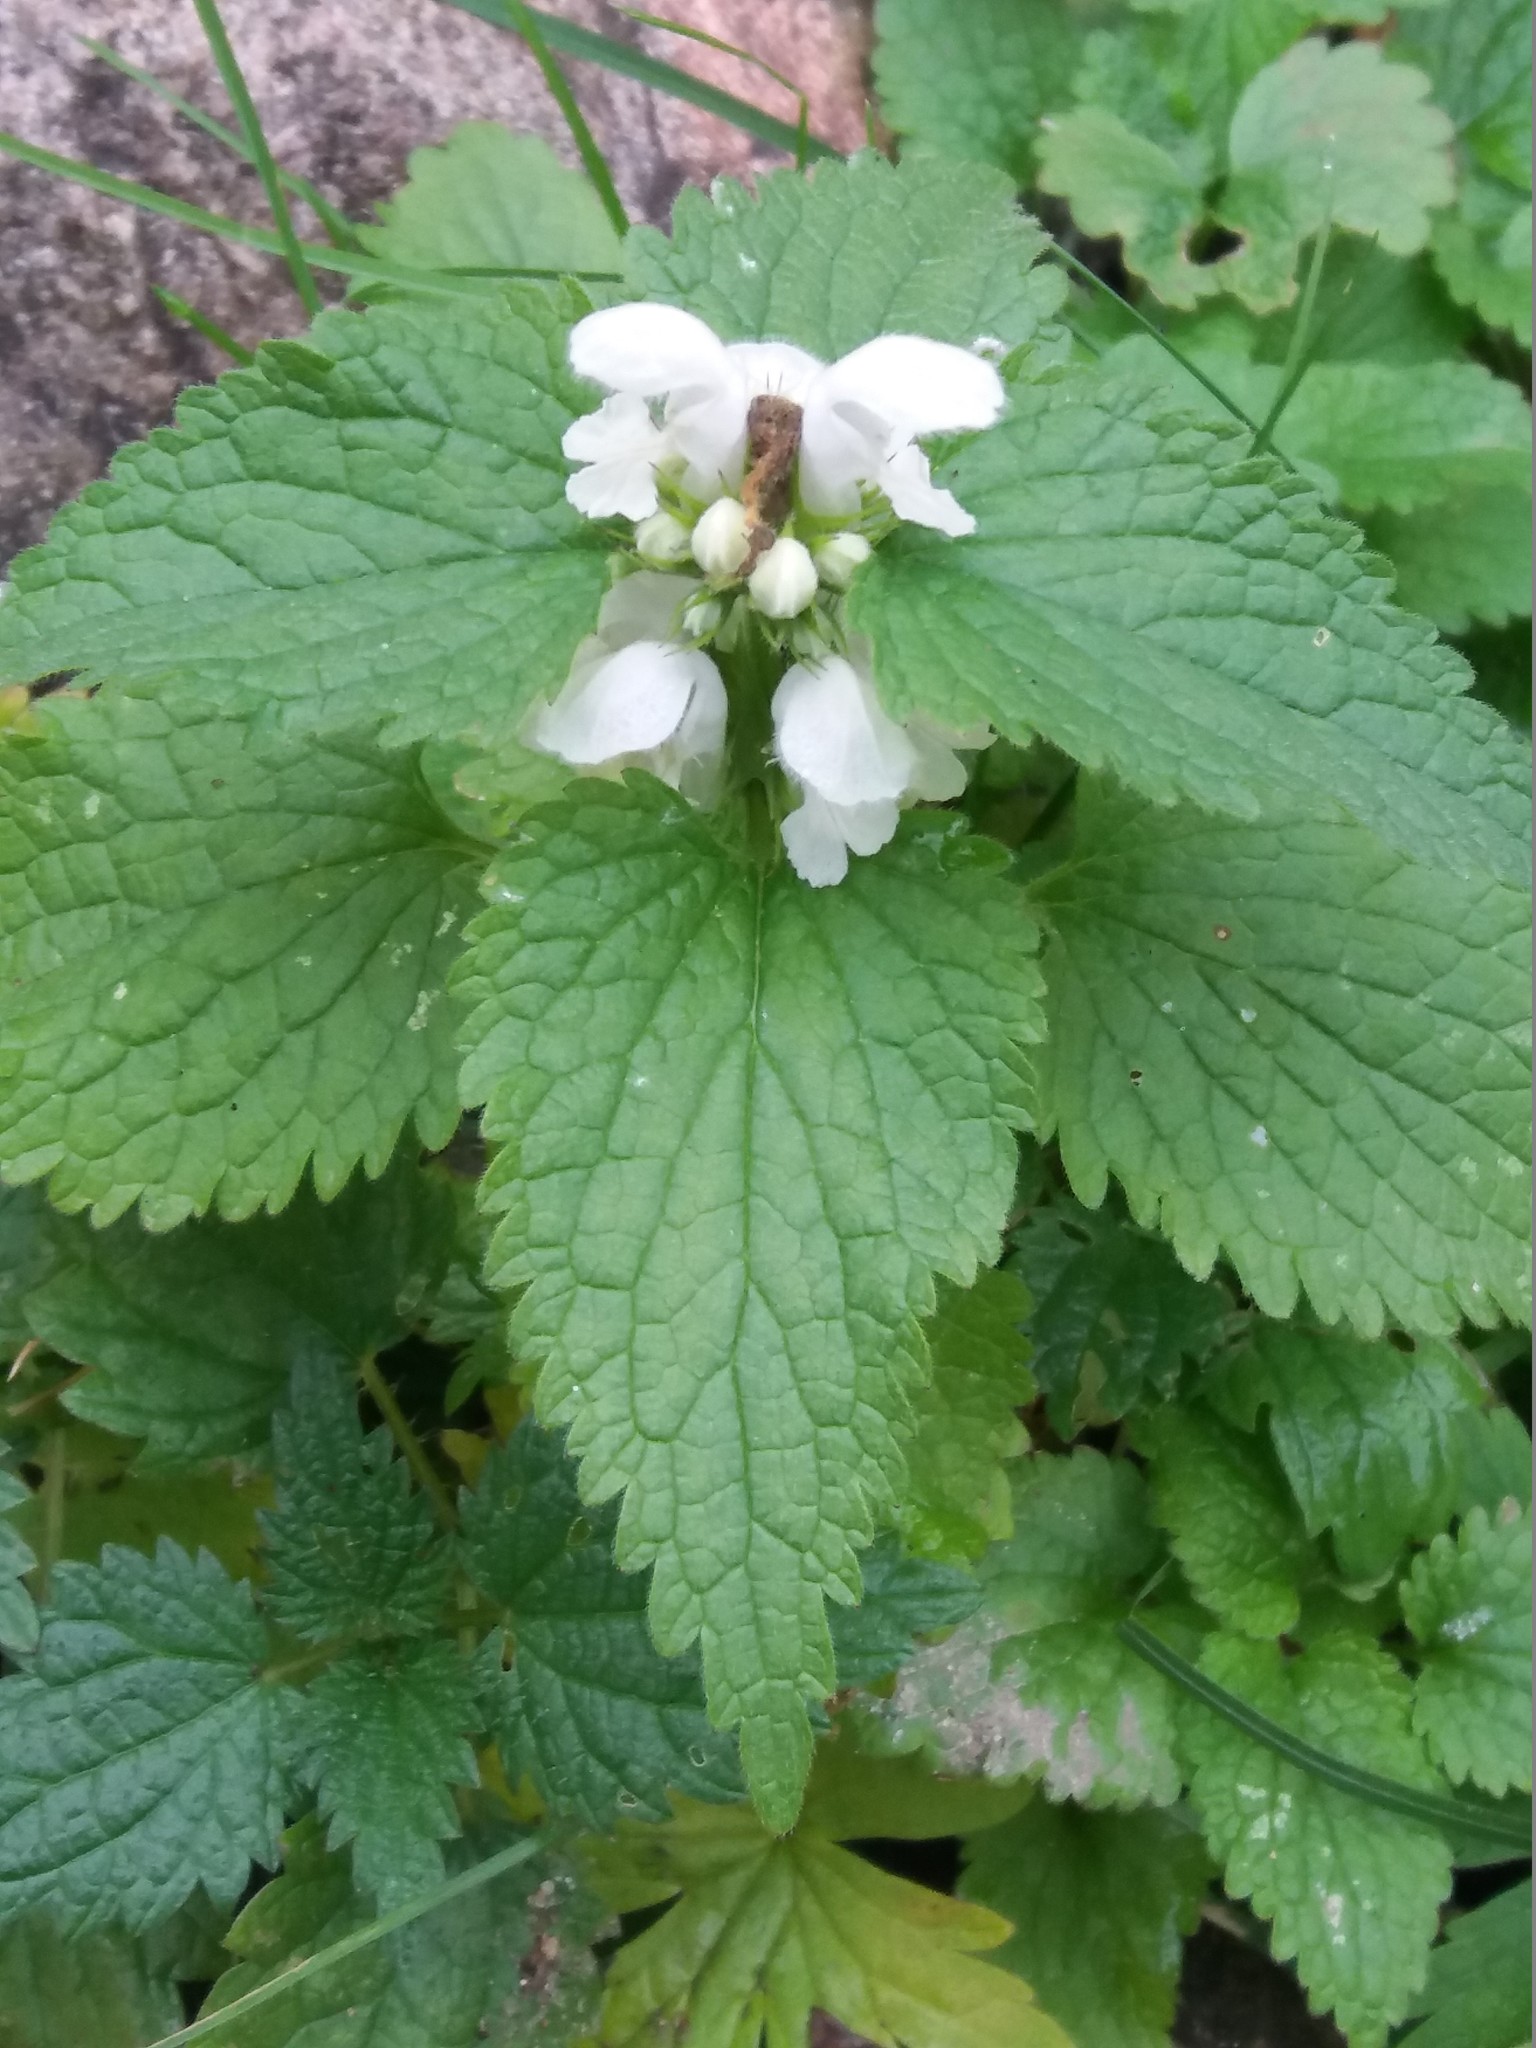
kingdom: Plantae
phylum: Tracheophyta
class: Magnoliopsida
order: Lamiales
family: Lamiaceae
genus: Lamium
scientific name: Lamium album
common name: White dead-nettle
